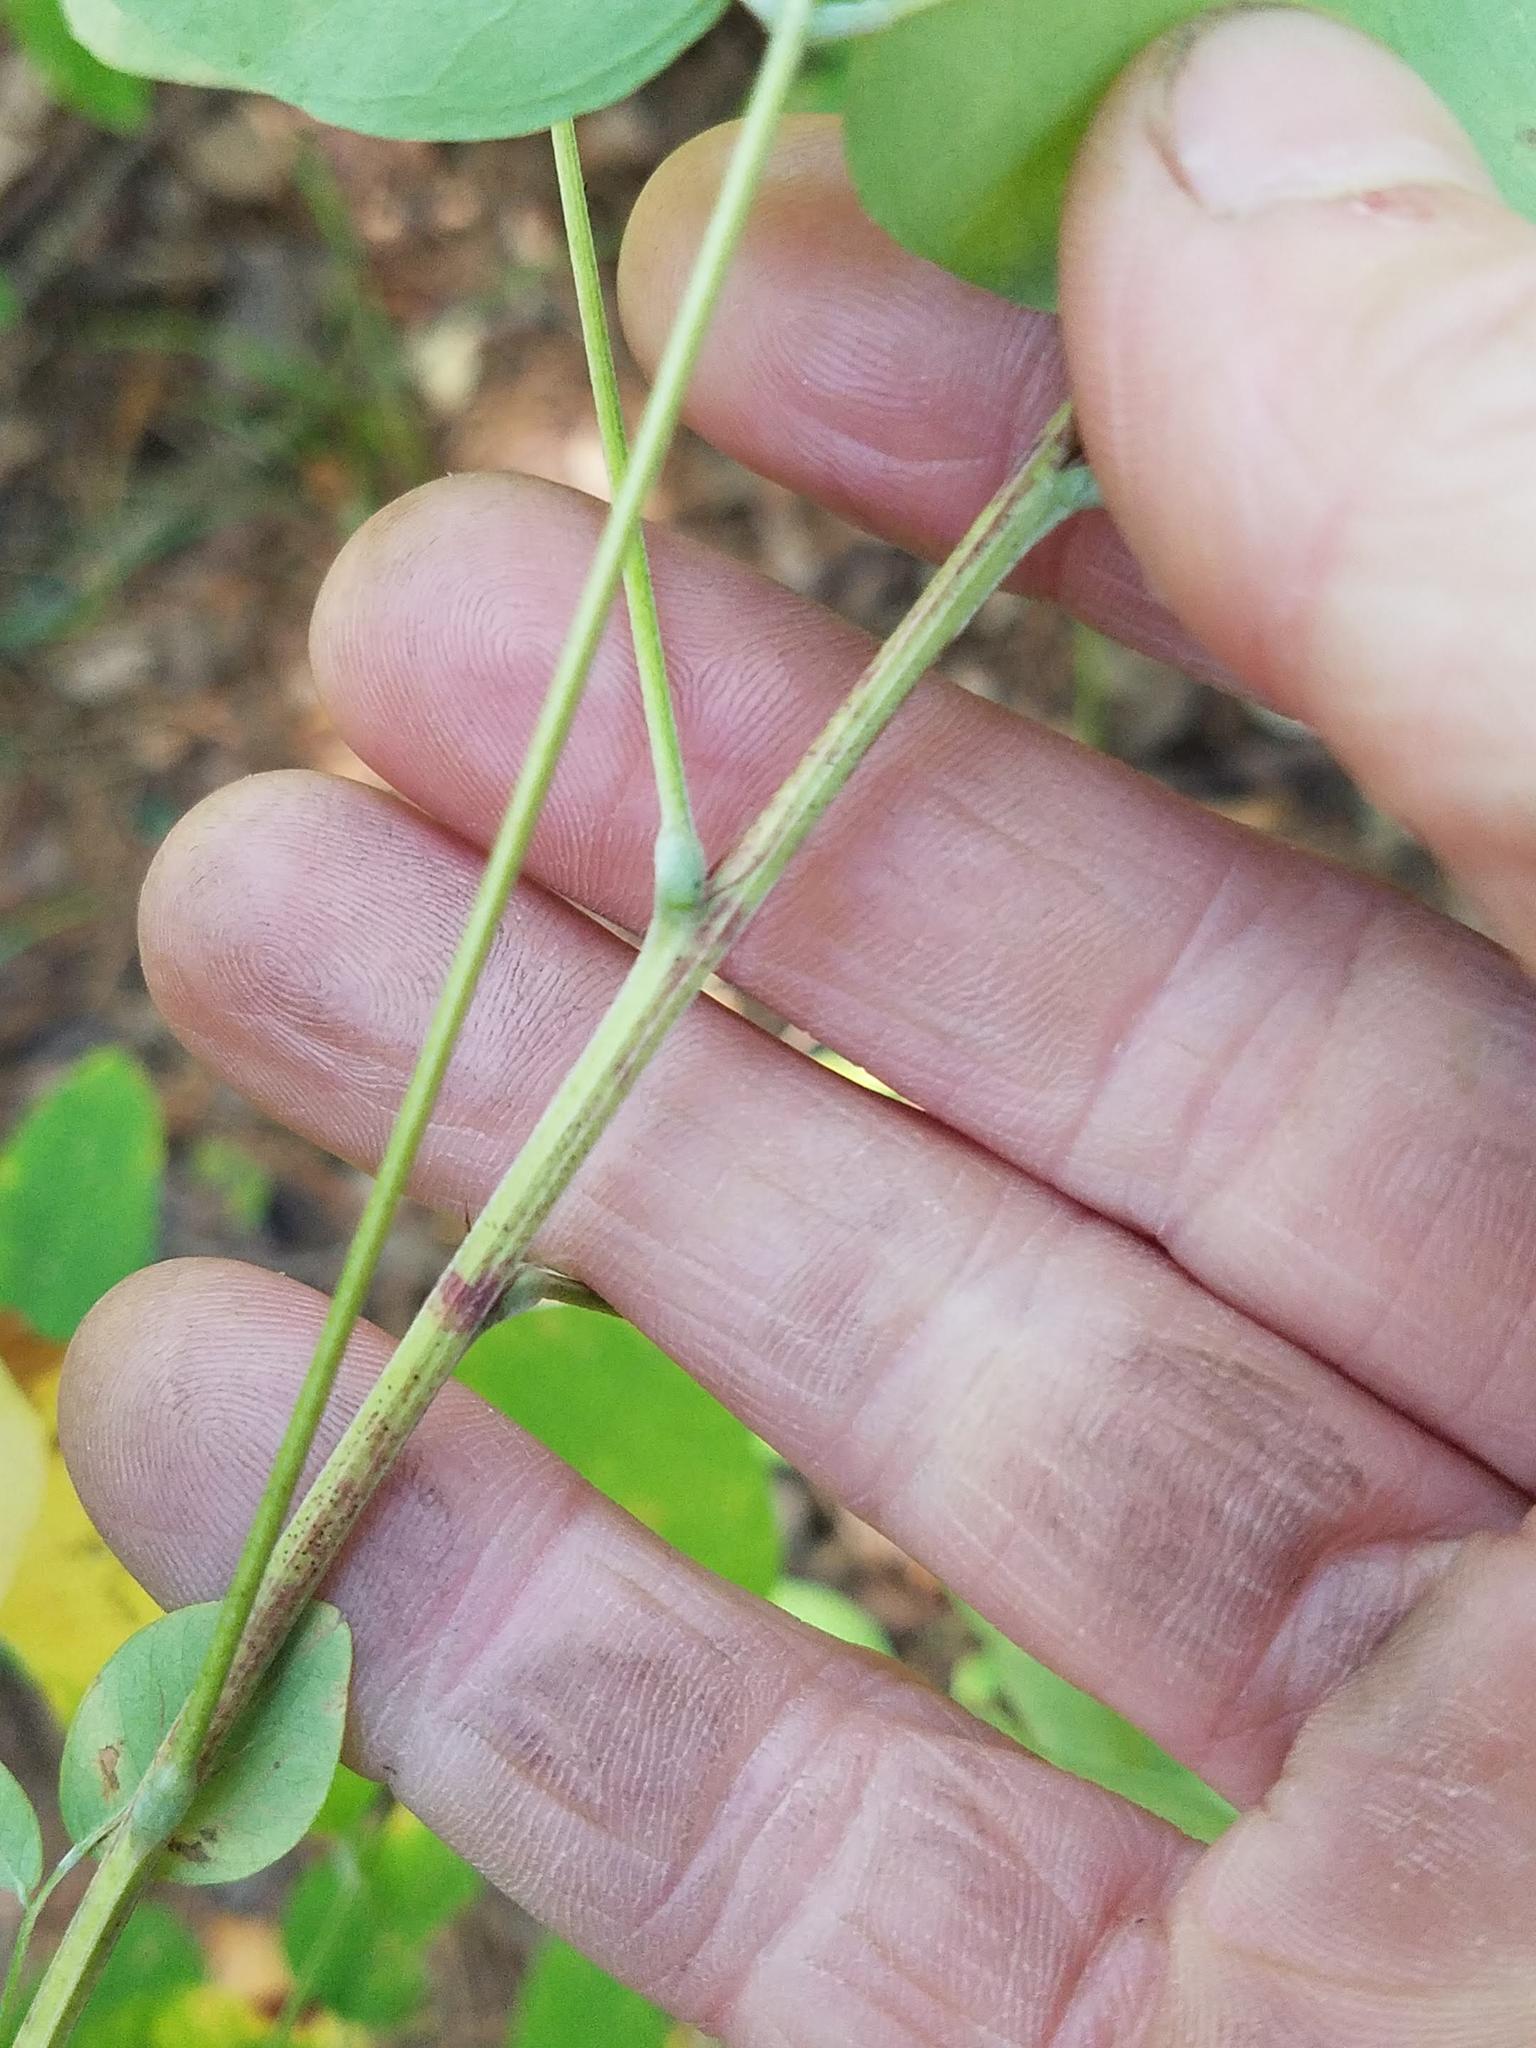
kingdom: Plantae
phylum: Tracheophyta
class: Magnoliopsida
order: Fabales
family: Fabaceae
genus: Lespedeza
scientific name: Lespedeza bicolor
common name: Shrub lespedeza
